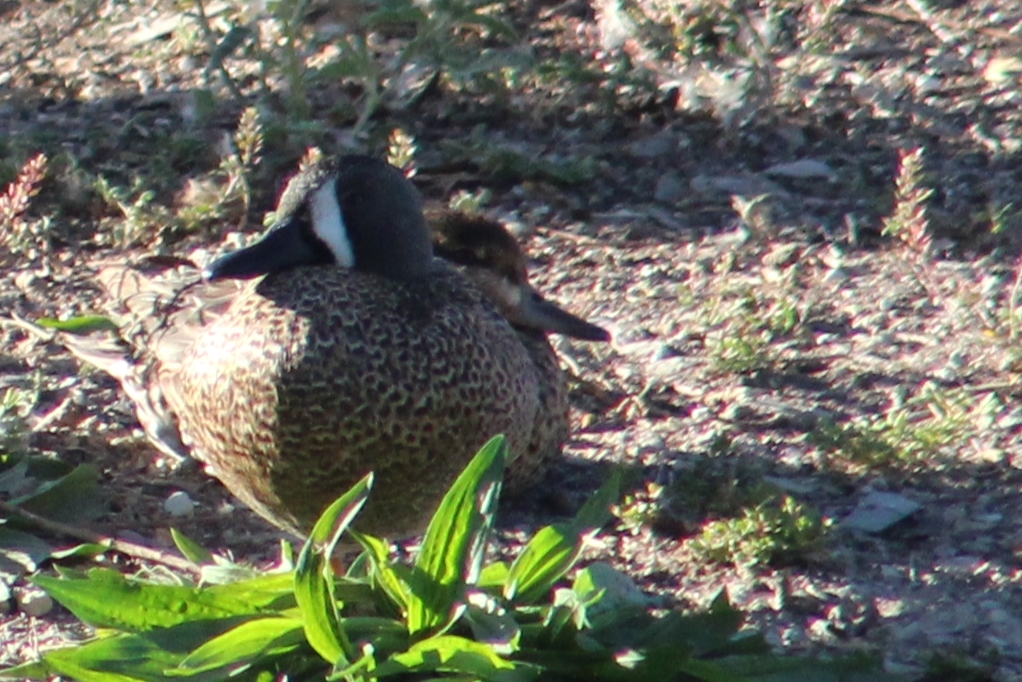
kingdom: Animalia
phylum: Chordata
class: Aves
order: Anseriformes
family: Anatidae
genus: Spatula
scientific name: Spatula discors
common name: Blue-winged teal
